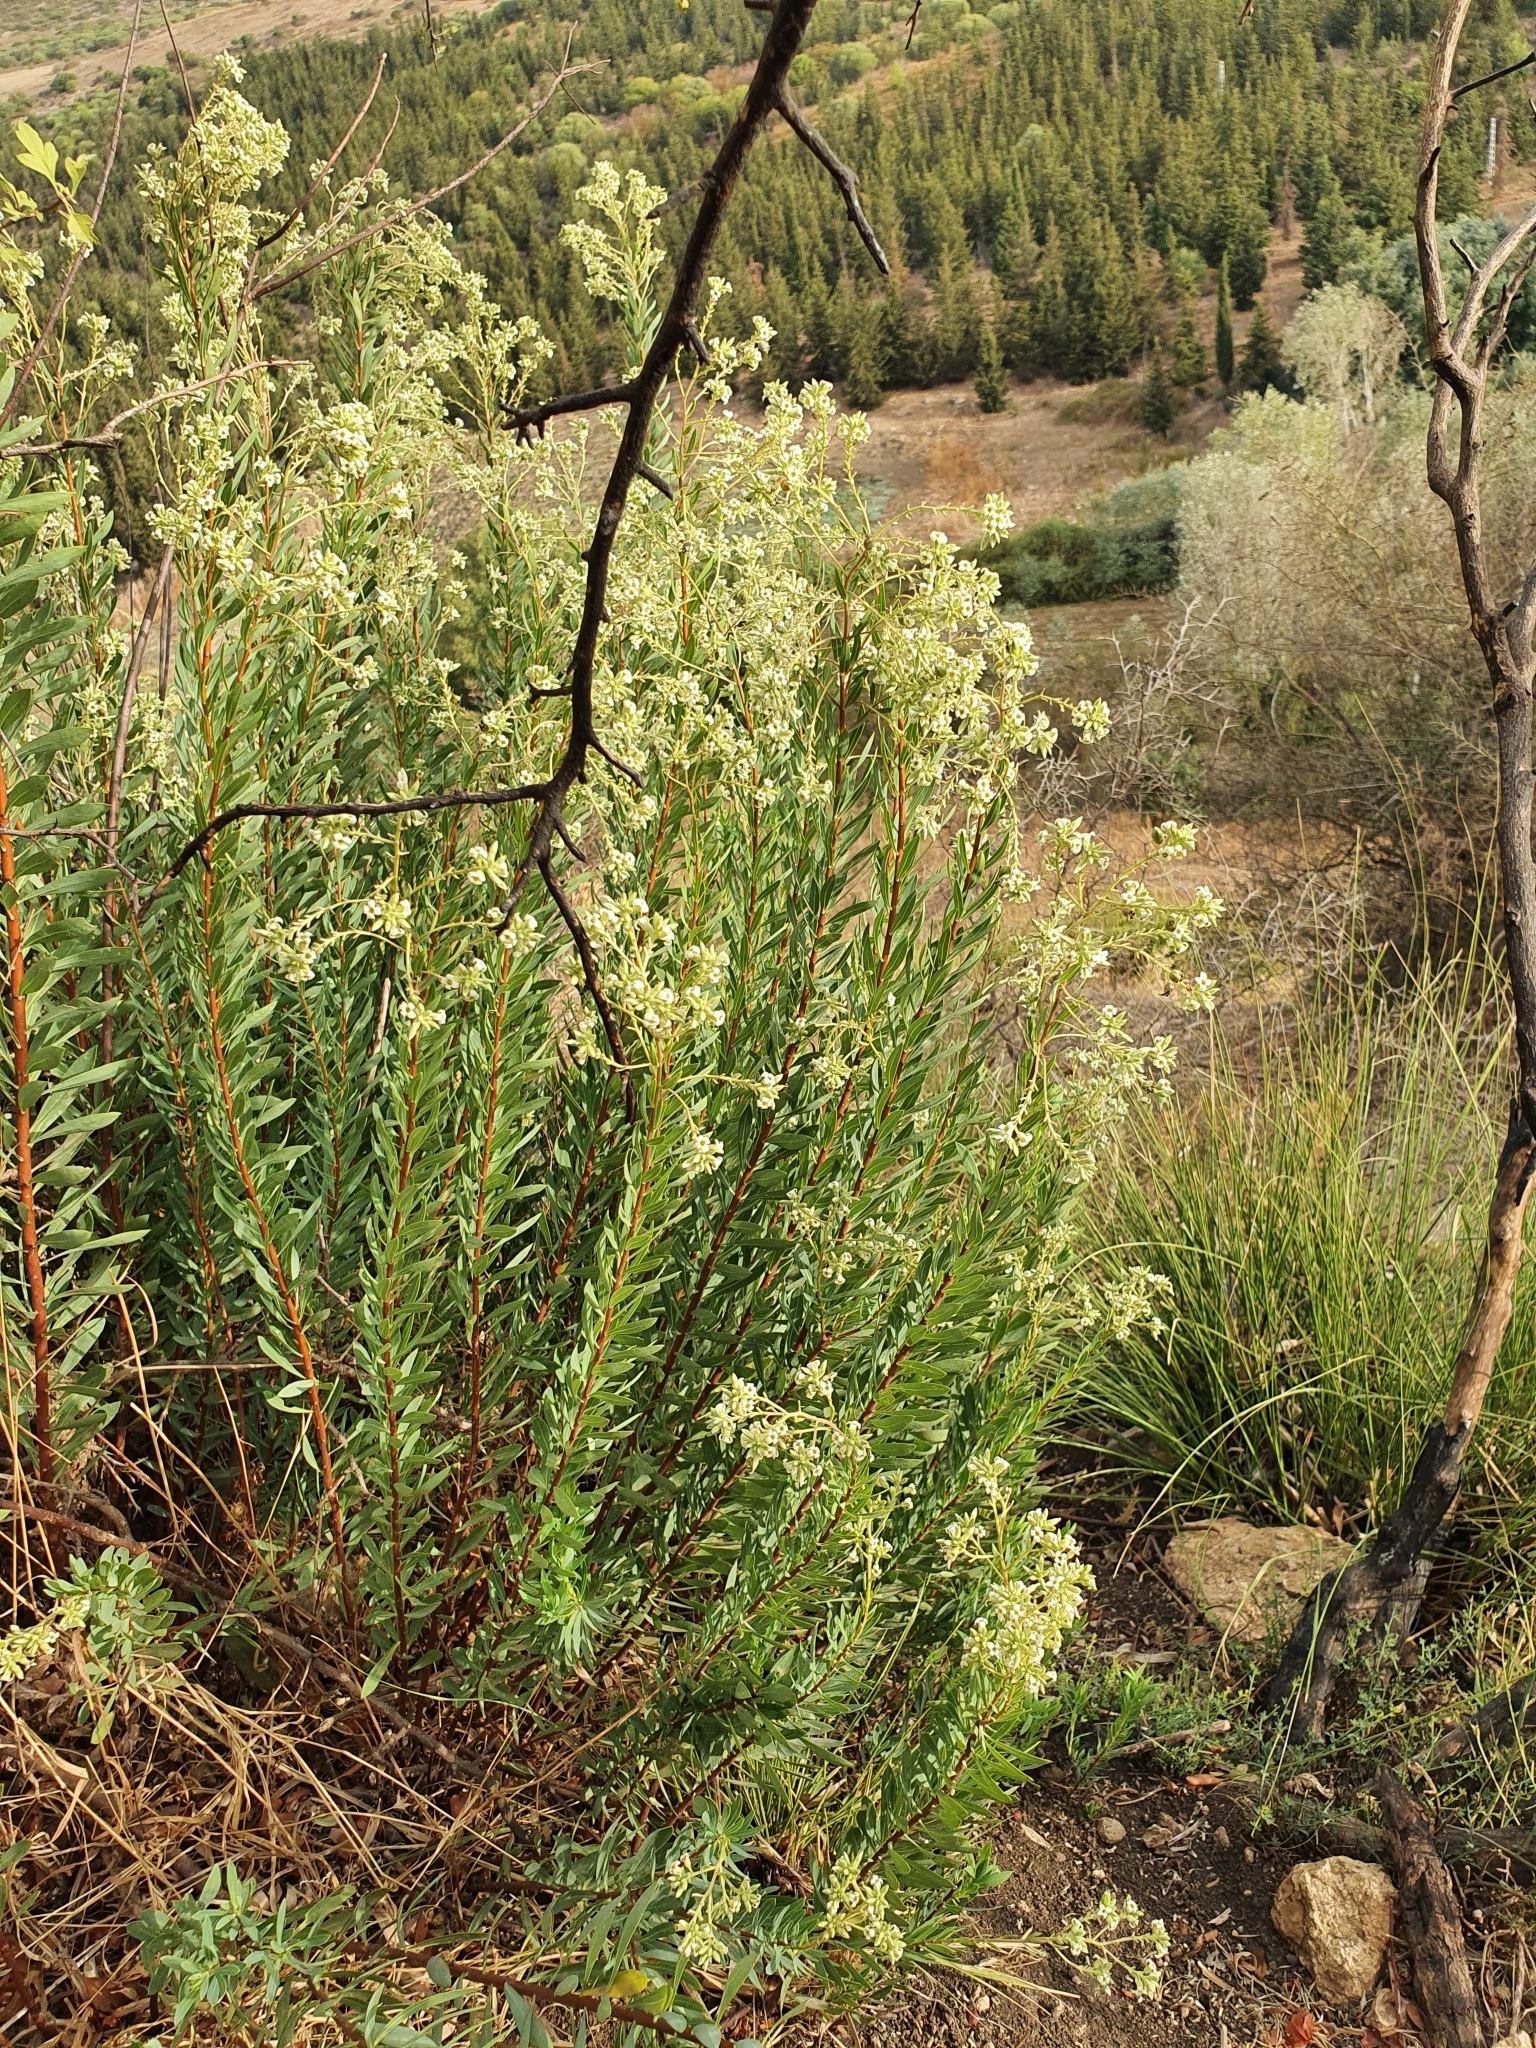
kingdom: Plantae
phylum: Tracheophyta
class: Magnoliopsida
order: Malvales
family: Thymelaeaceae
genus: Daphne
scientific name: Daphne gnidium
